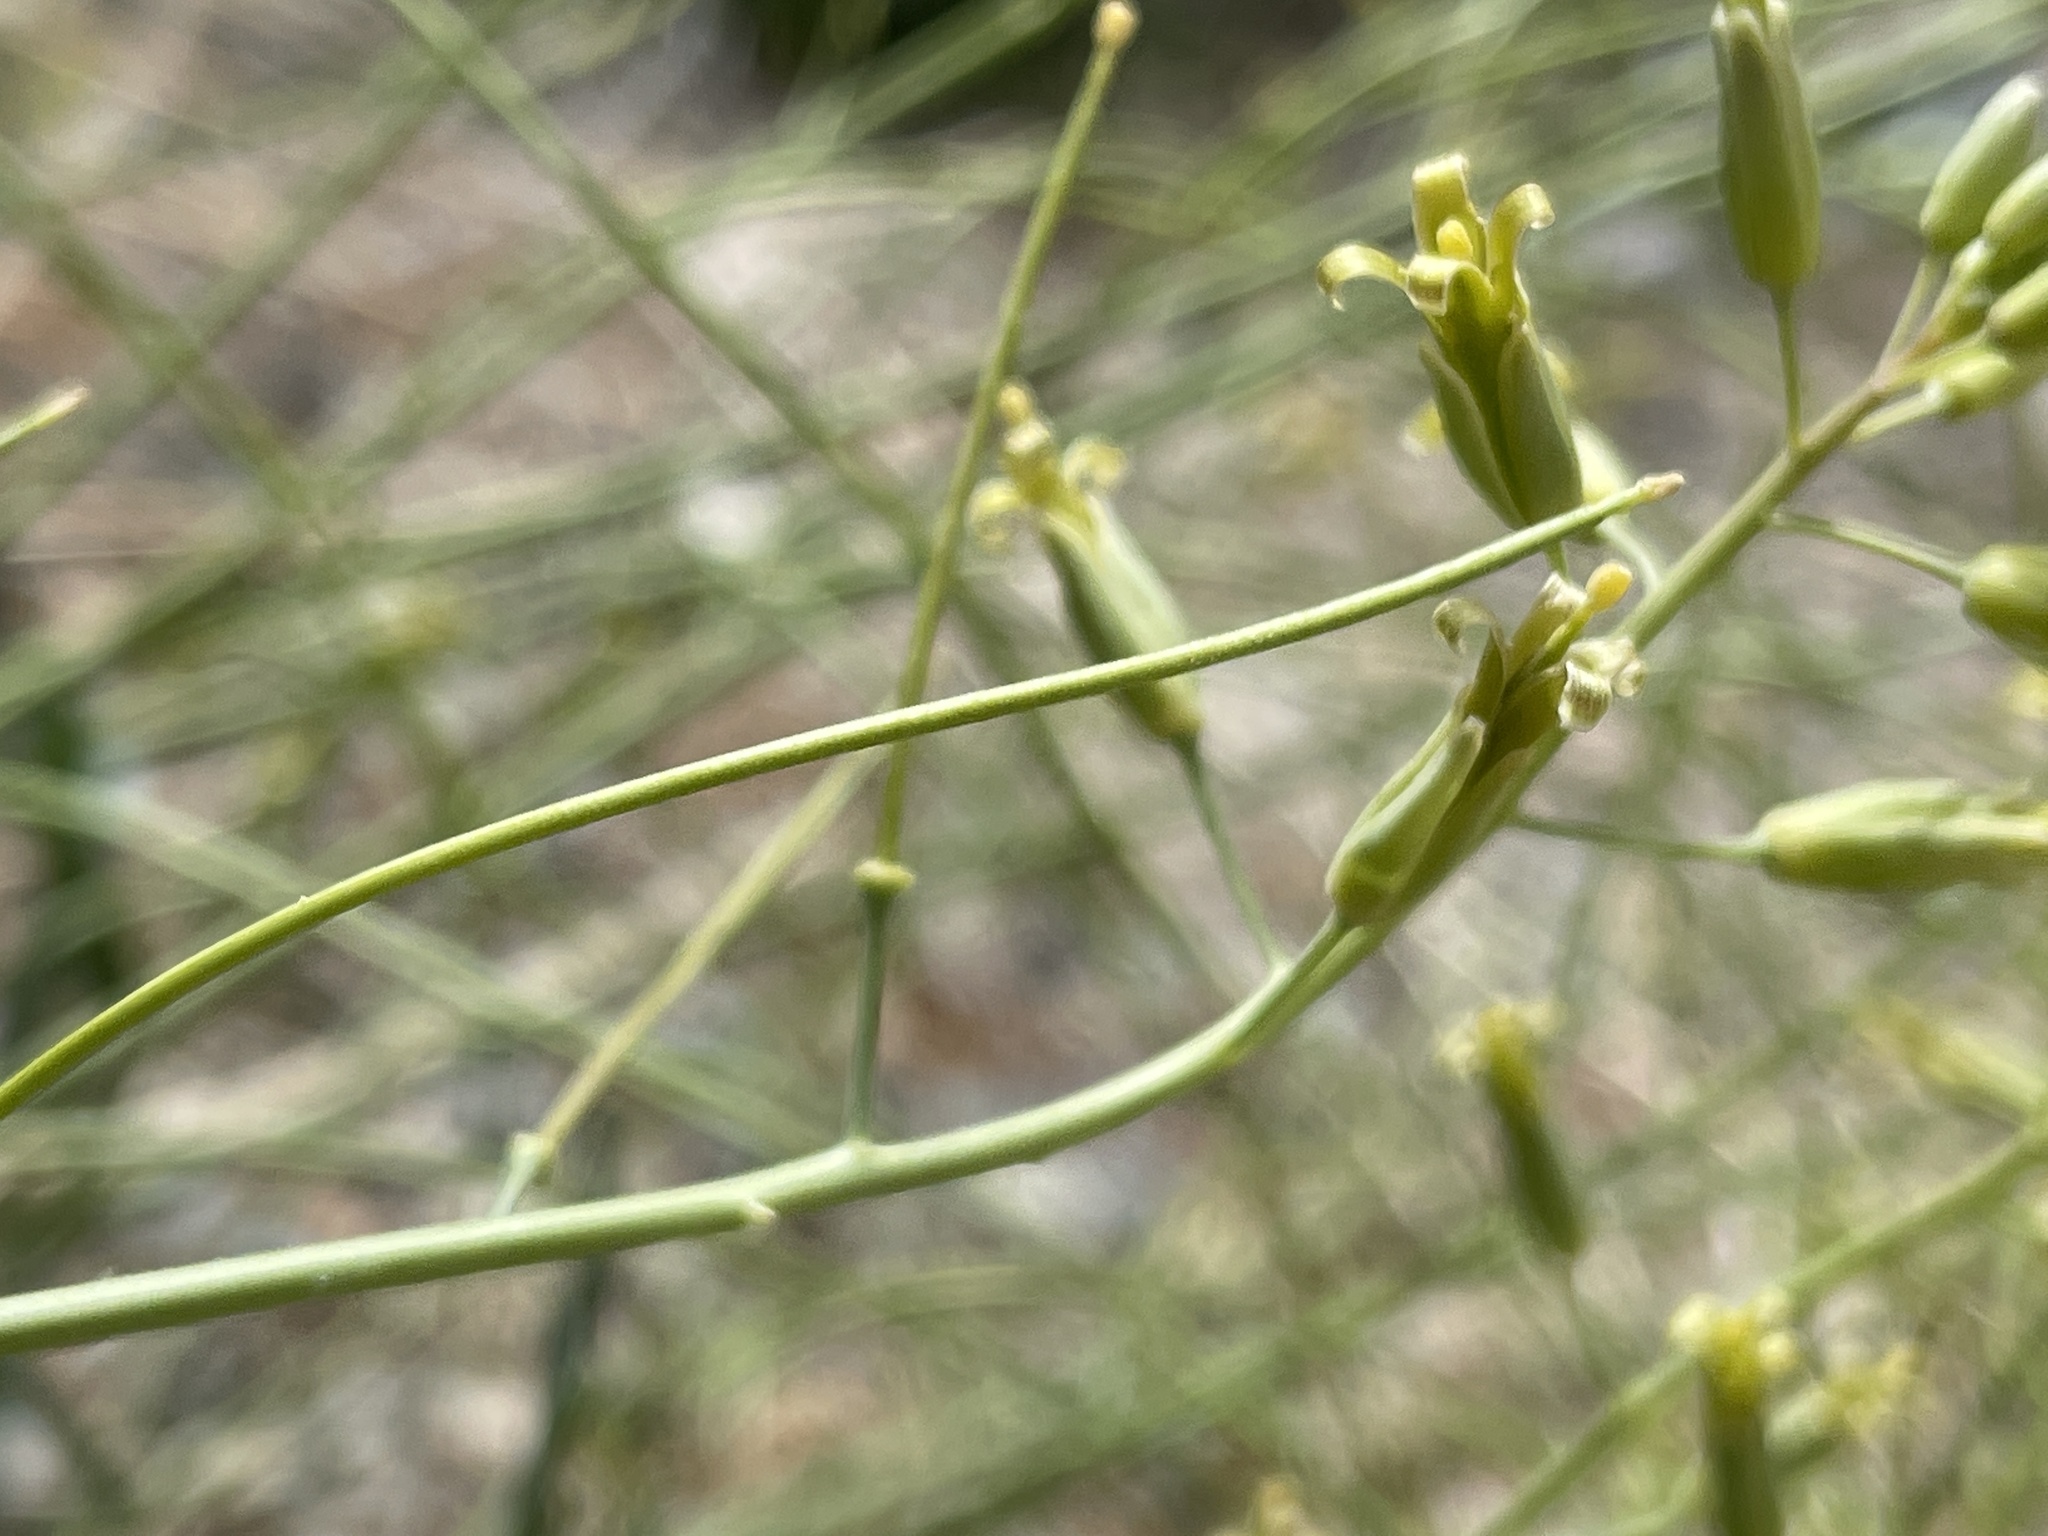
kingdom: Plantae
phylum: Tracheophyta
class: Magnoliopsida
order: Brassicales
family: Brassicaceae
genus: Streptanthus
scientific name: Streptanthus glaucus
